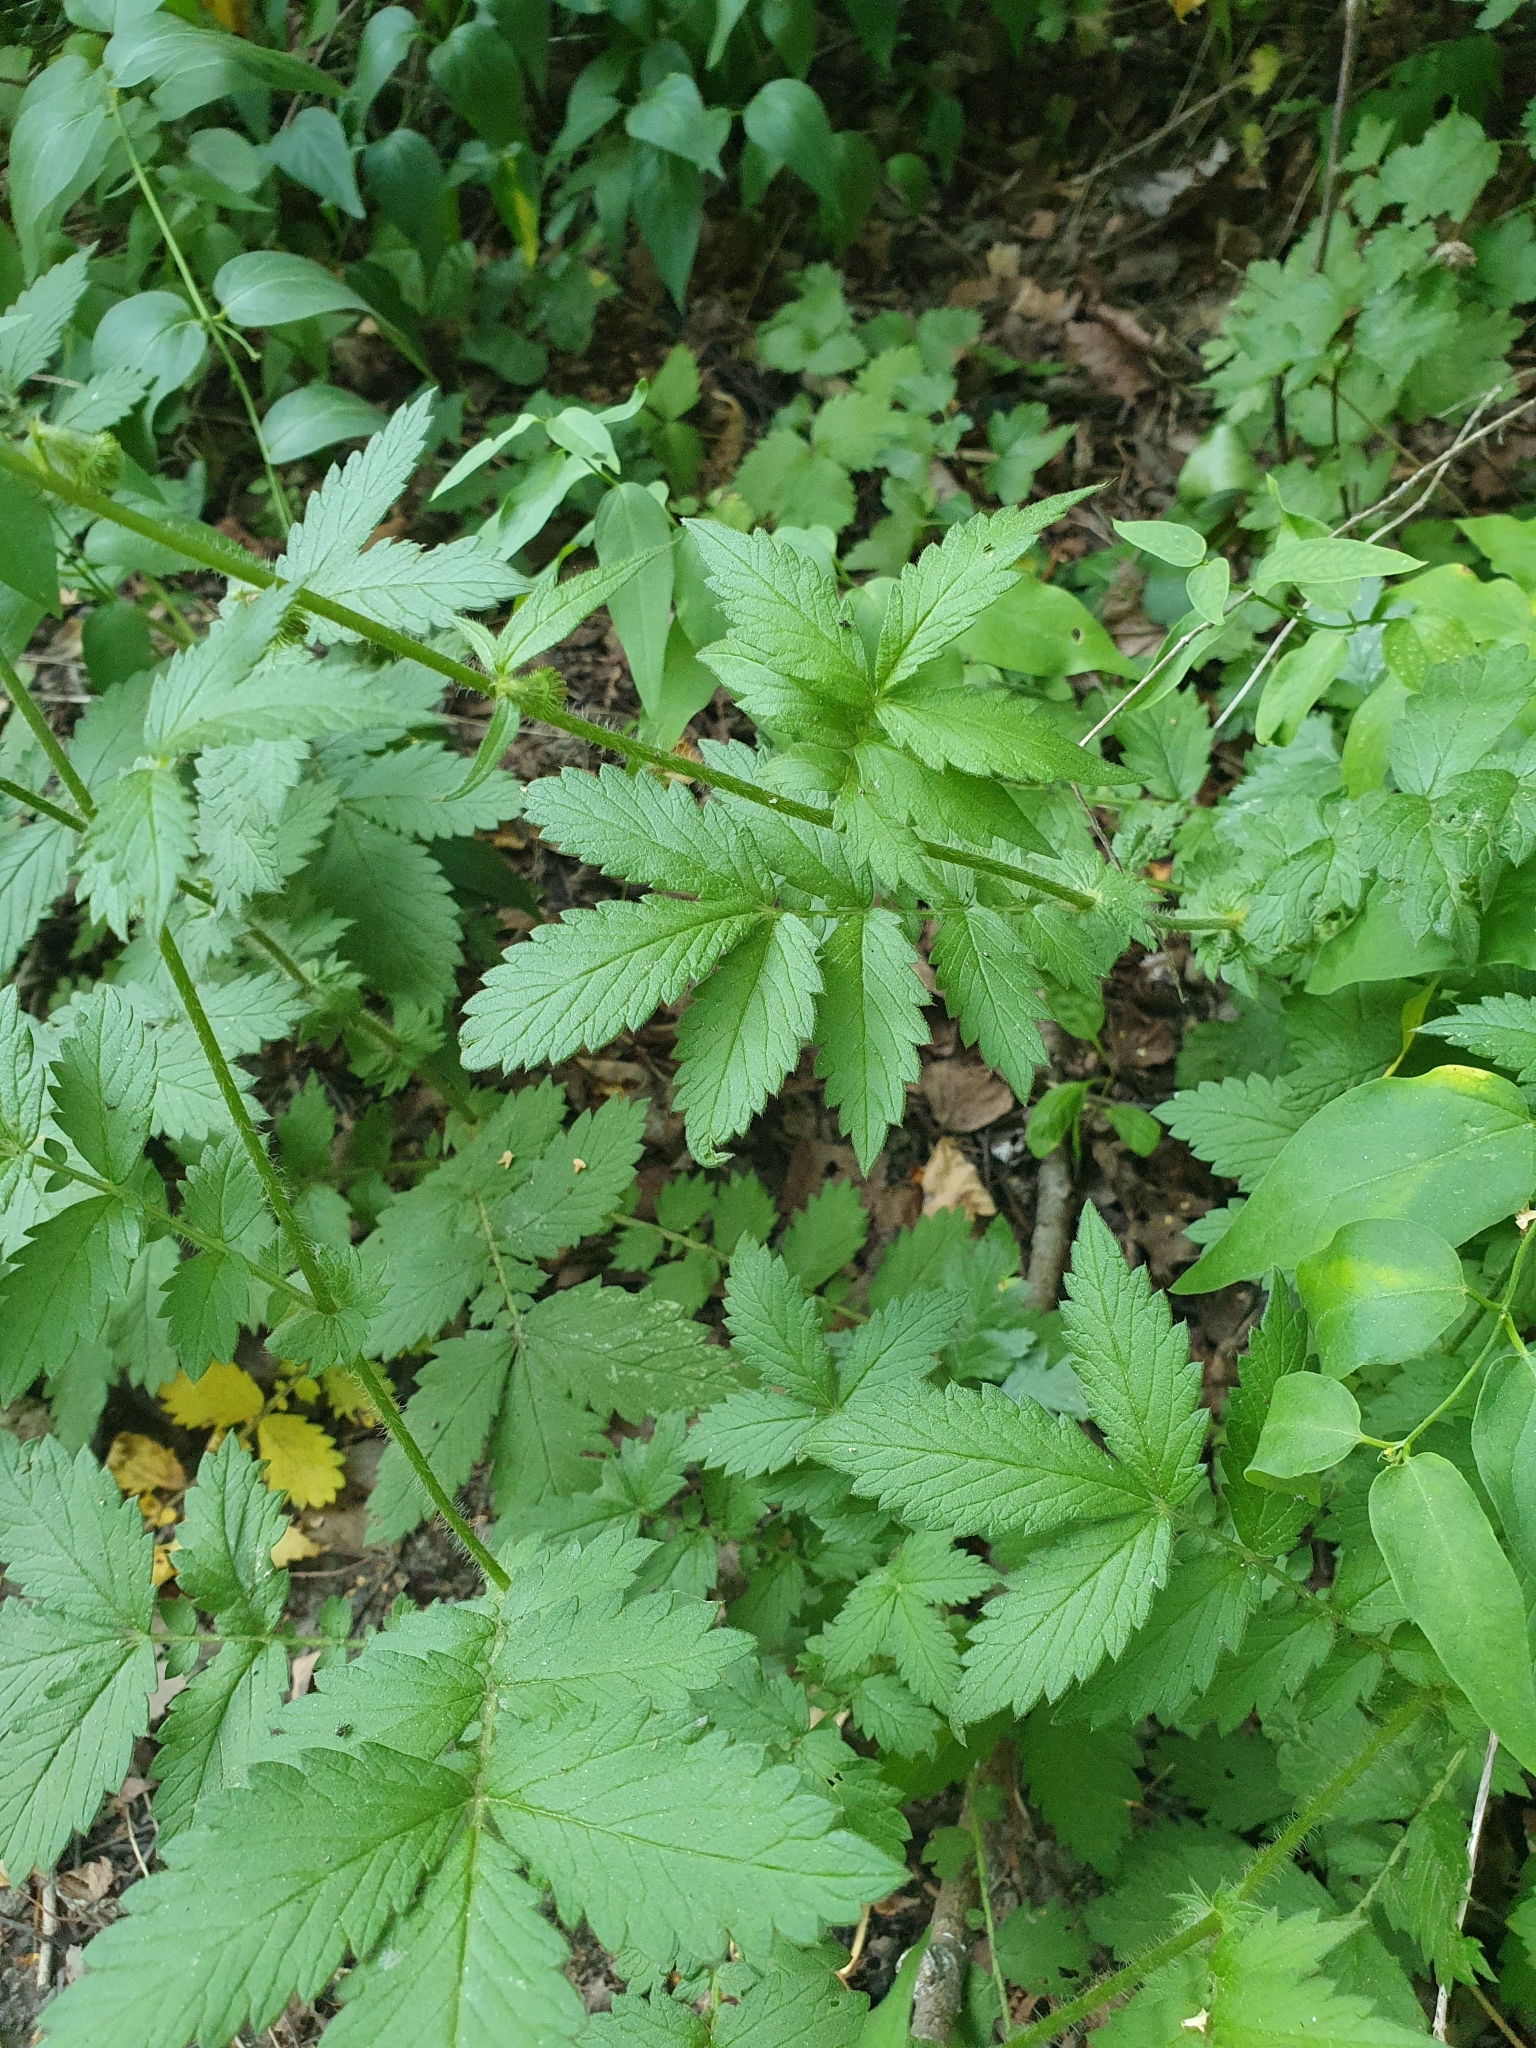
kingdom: Plantae
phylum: Tracheophyta
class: Magnoliopsida
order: Rosales
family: Rosaceae
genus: Agrimonia
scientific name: Agrimonia eupatoria
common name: Agrimony
